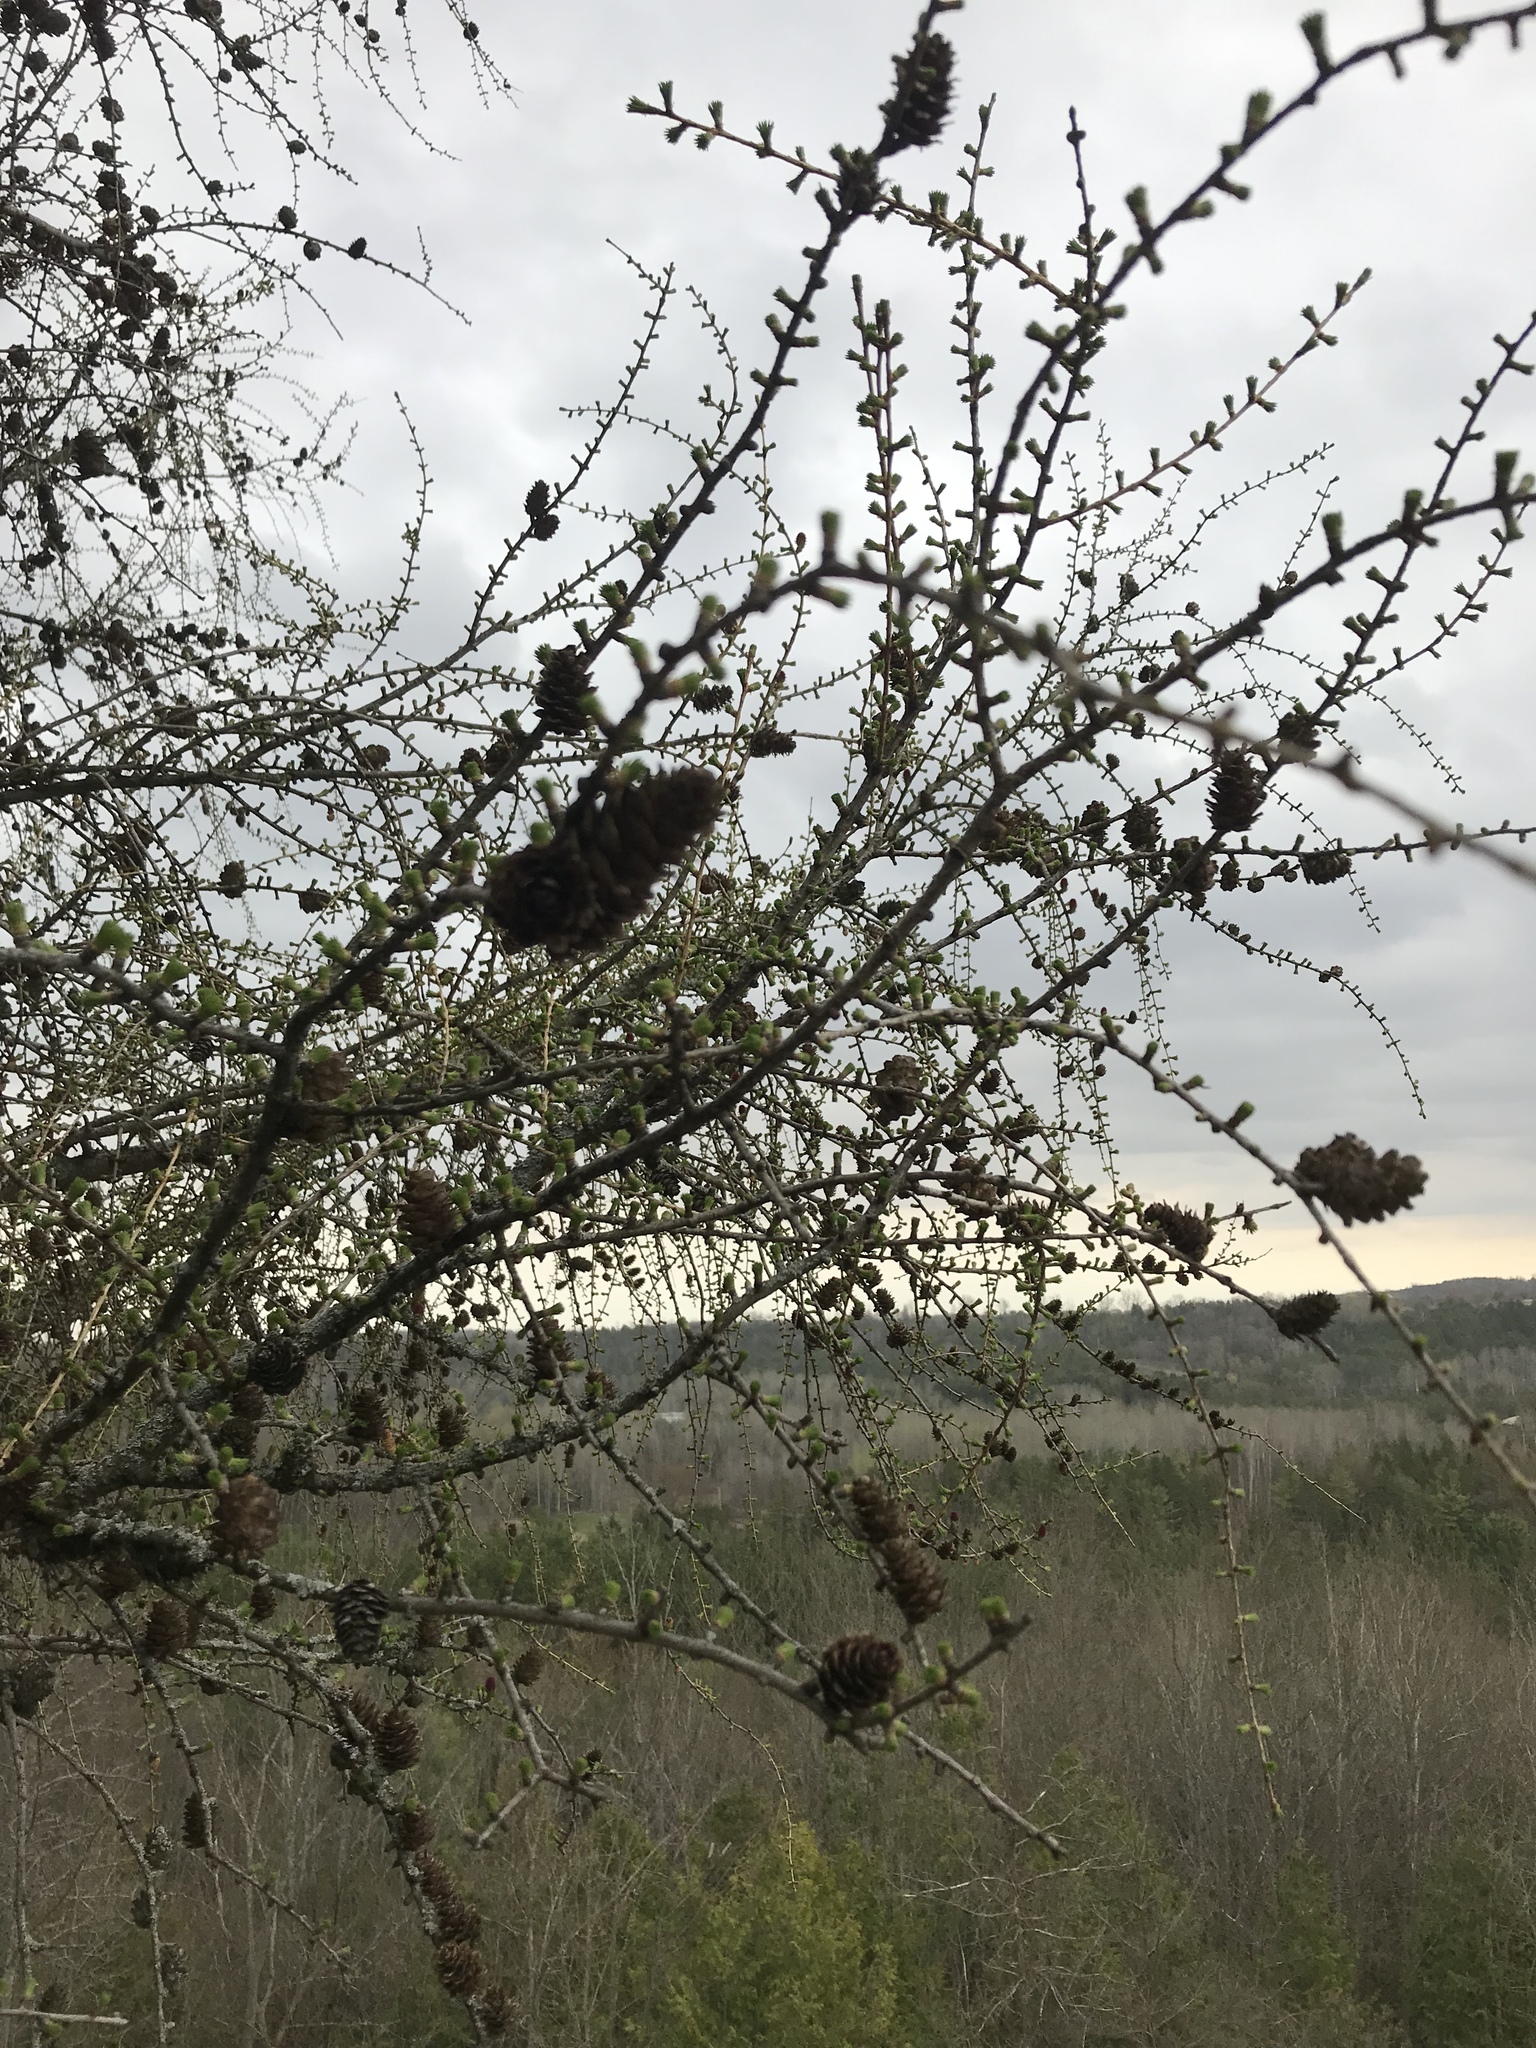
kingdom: Plantae
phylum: Tracheophyta
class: Pinopsida
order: Pinales
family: Pinaceae
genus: Larix
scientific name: Larix laricina
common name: American larch
